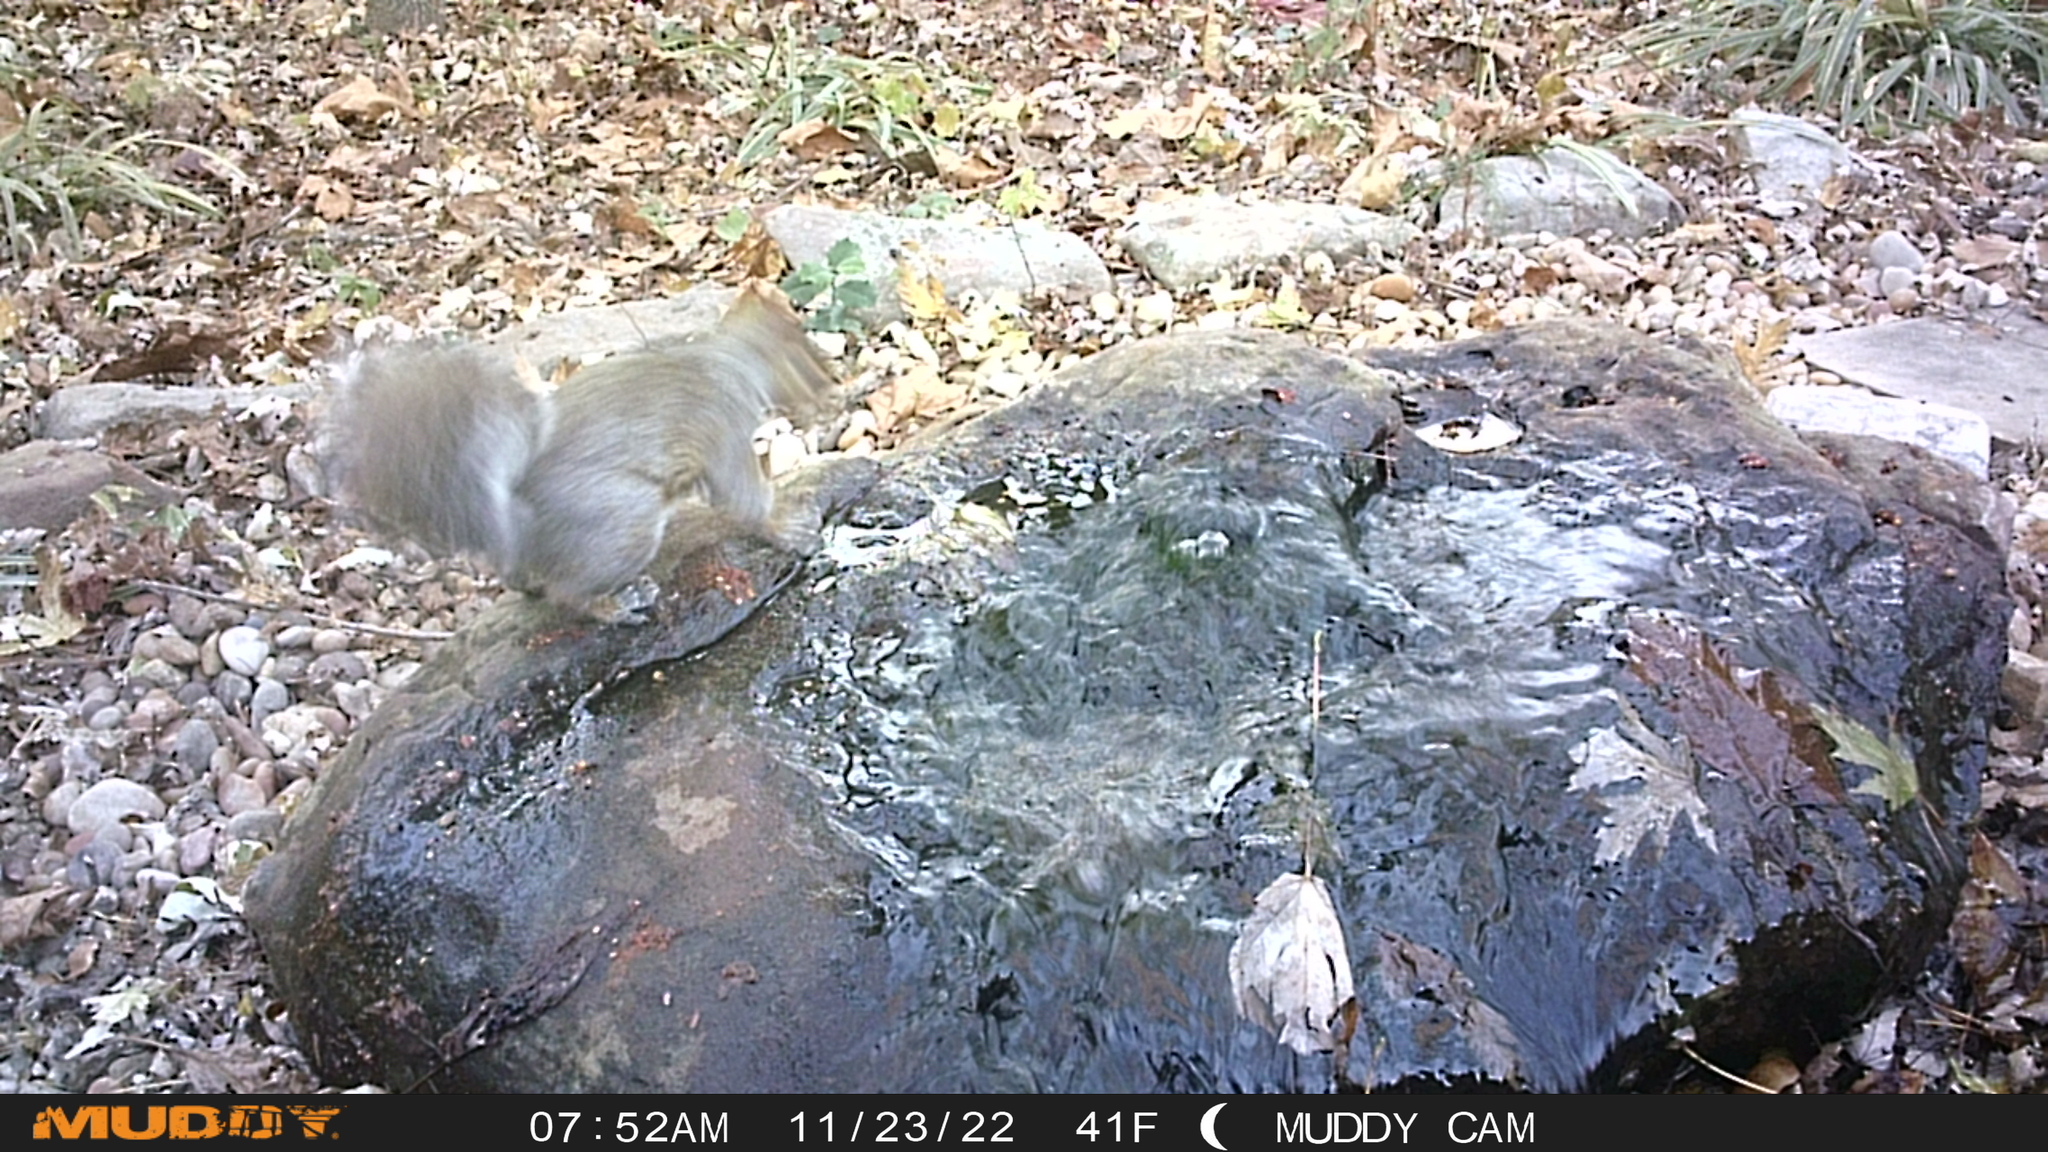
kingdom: Animalia
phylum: Chordata
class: Mammalia
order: Rodentia
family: Sciuridae
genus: Sciurus
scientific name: Sciurus carolinensis
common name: Eastern gray squirrel
